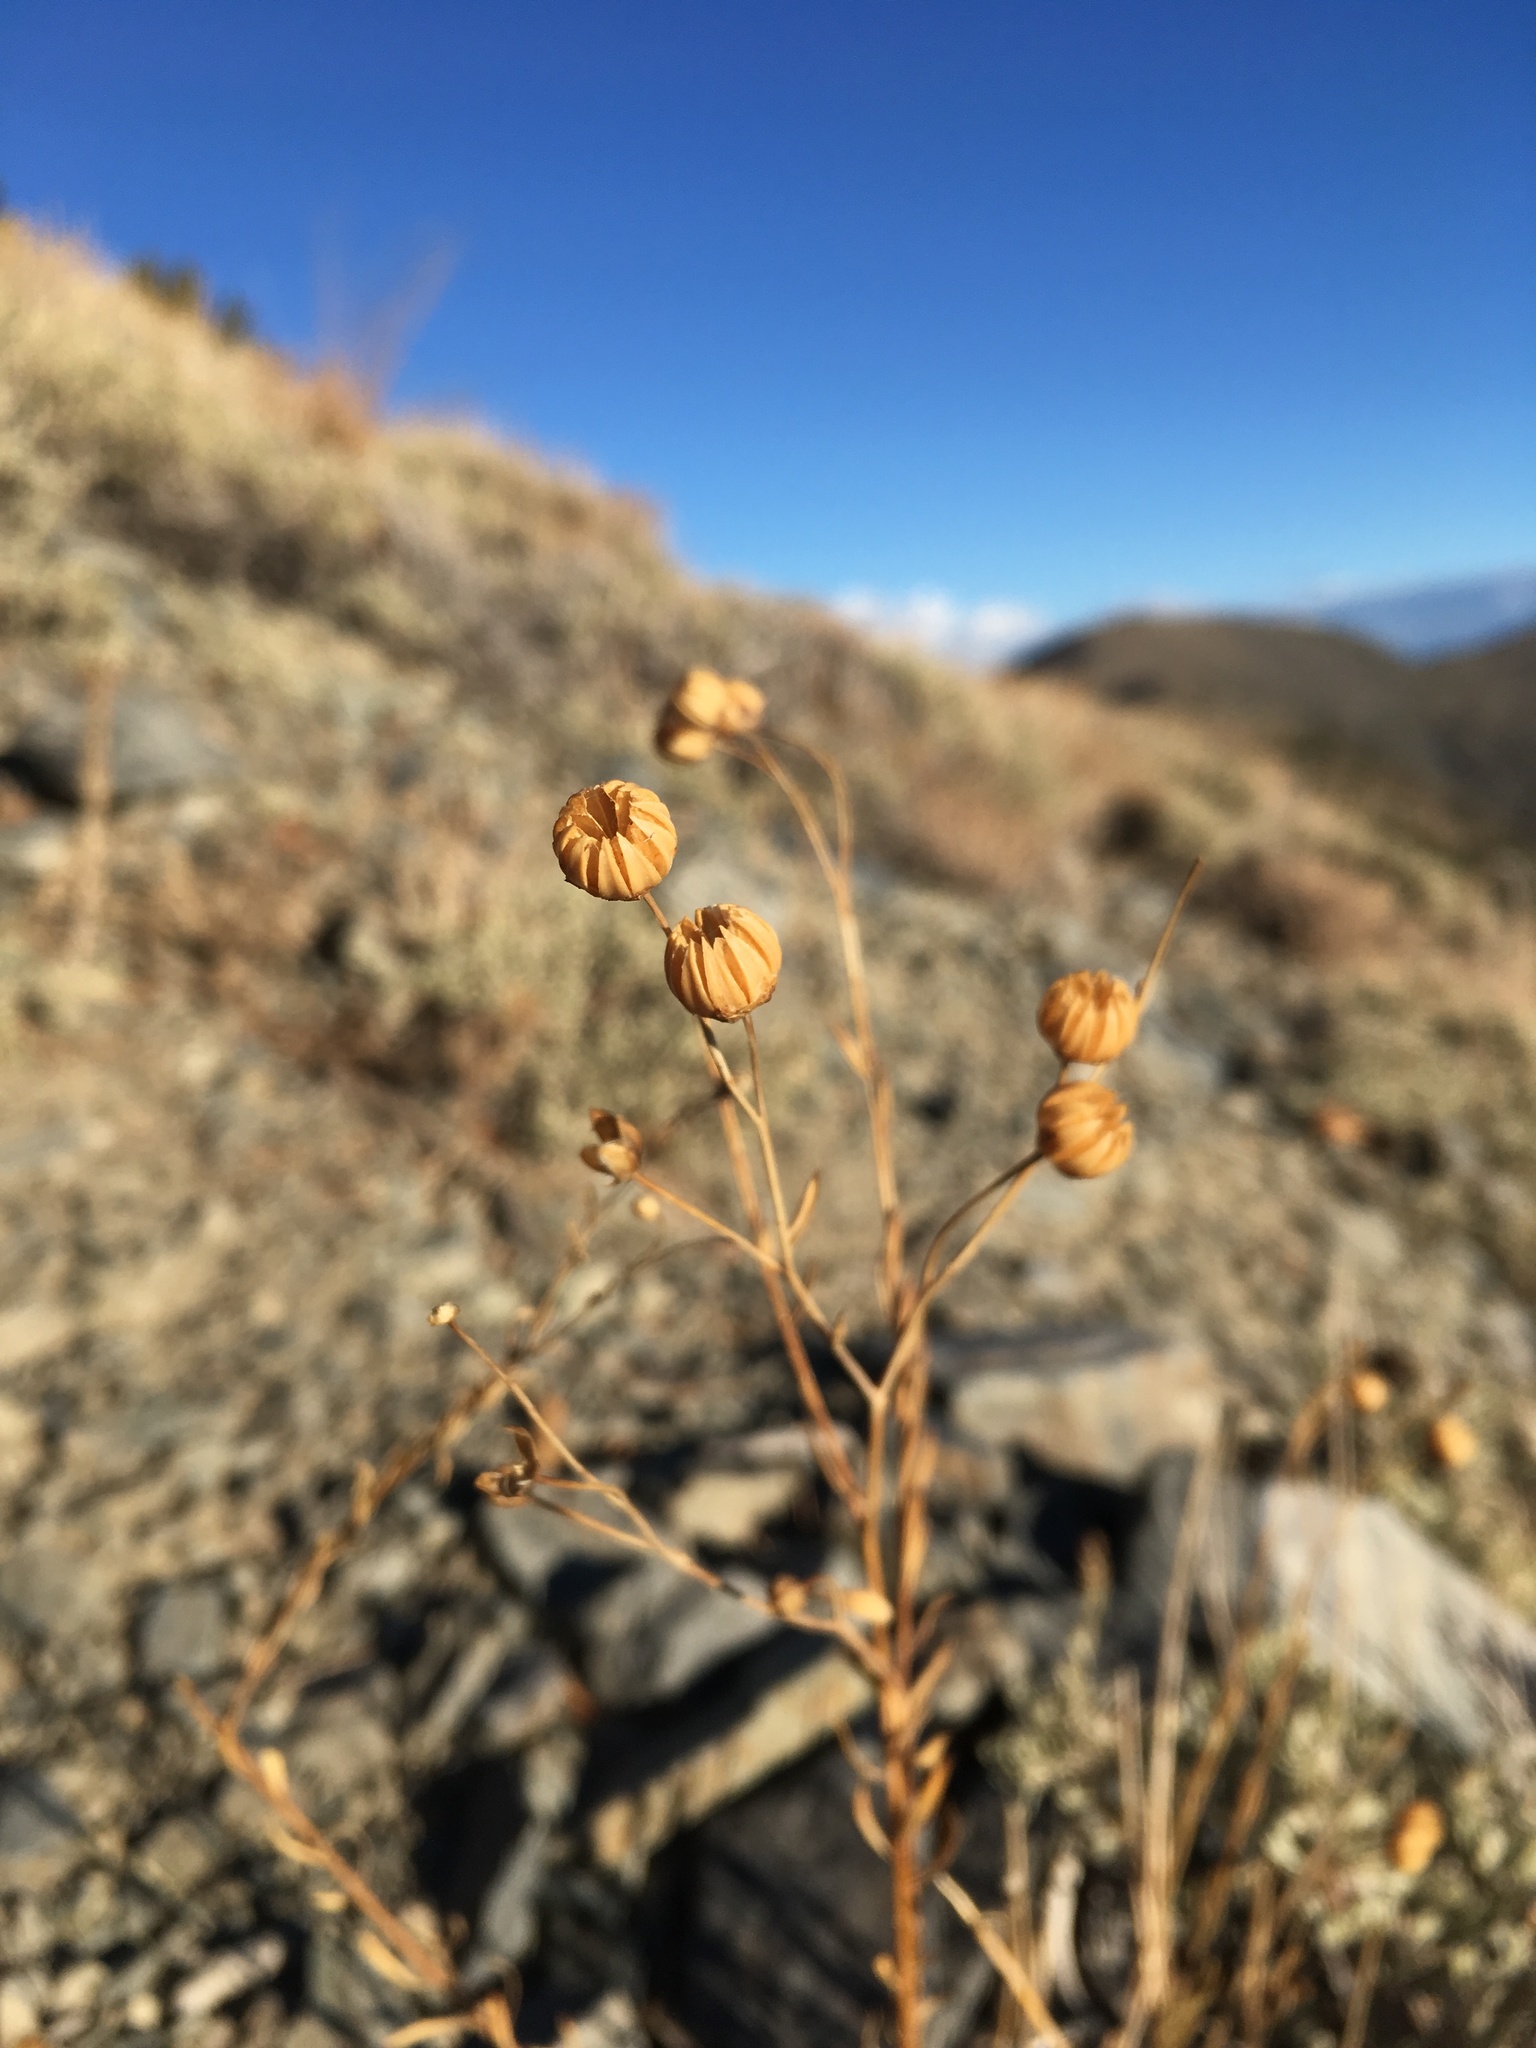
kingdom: Plantae
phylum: Tracheophyta
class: Magnoliopsida
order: Malpighiales
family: Linaceae
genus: Linum
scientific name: Linum lewisii
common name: Prairie flax
